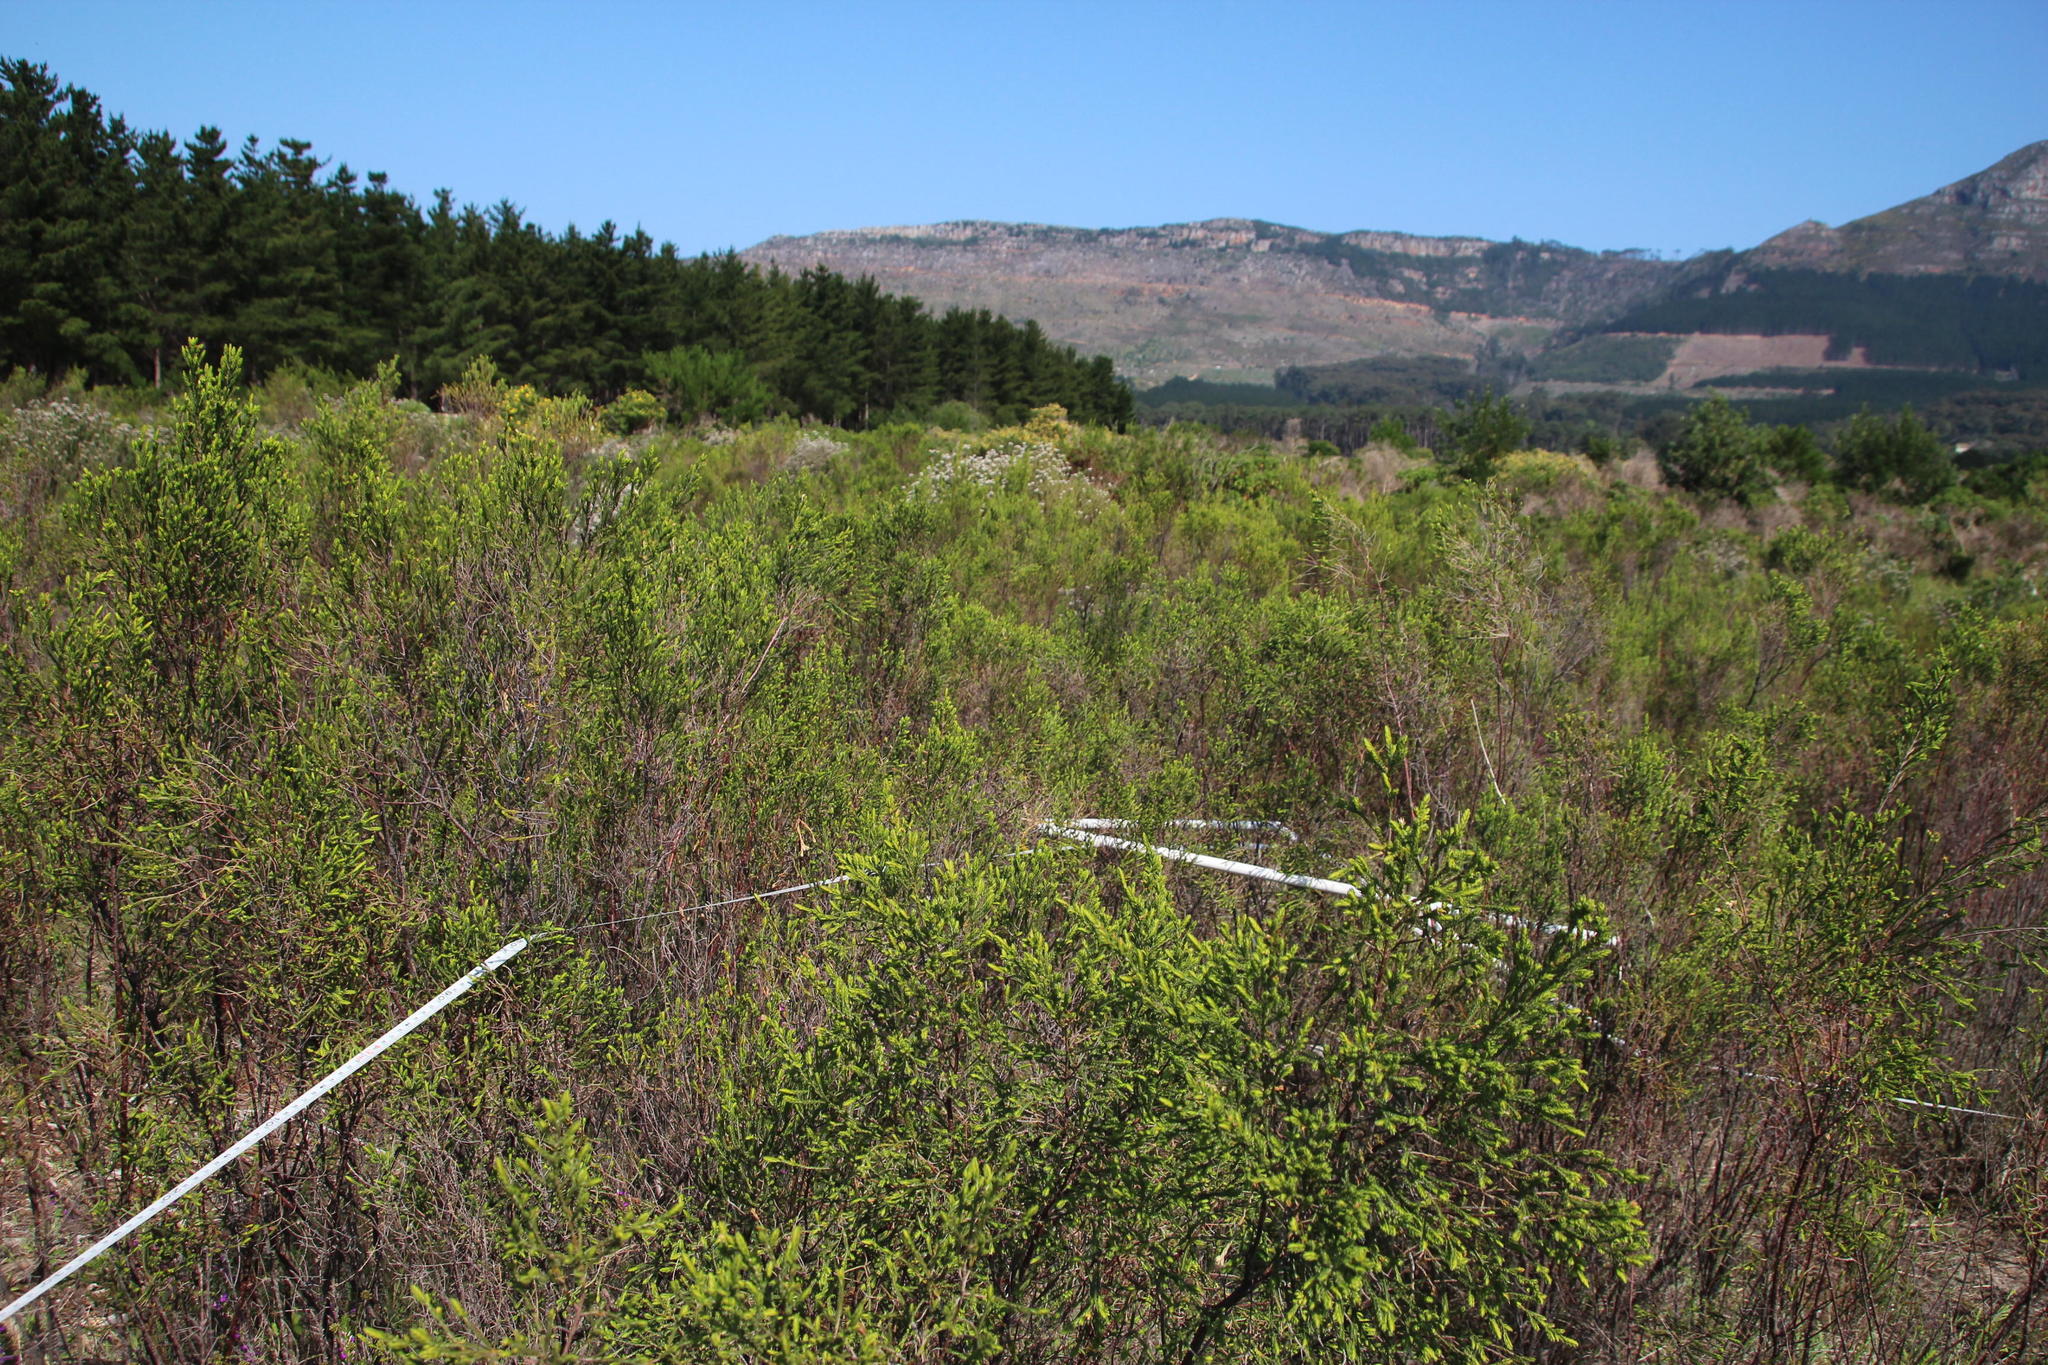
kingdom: Plantae
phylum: Tracheophyta
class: Magnoliopsida
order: Malvales
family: Thymelaeaceae
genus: Passerina
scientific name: Passerina corymbosa
